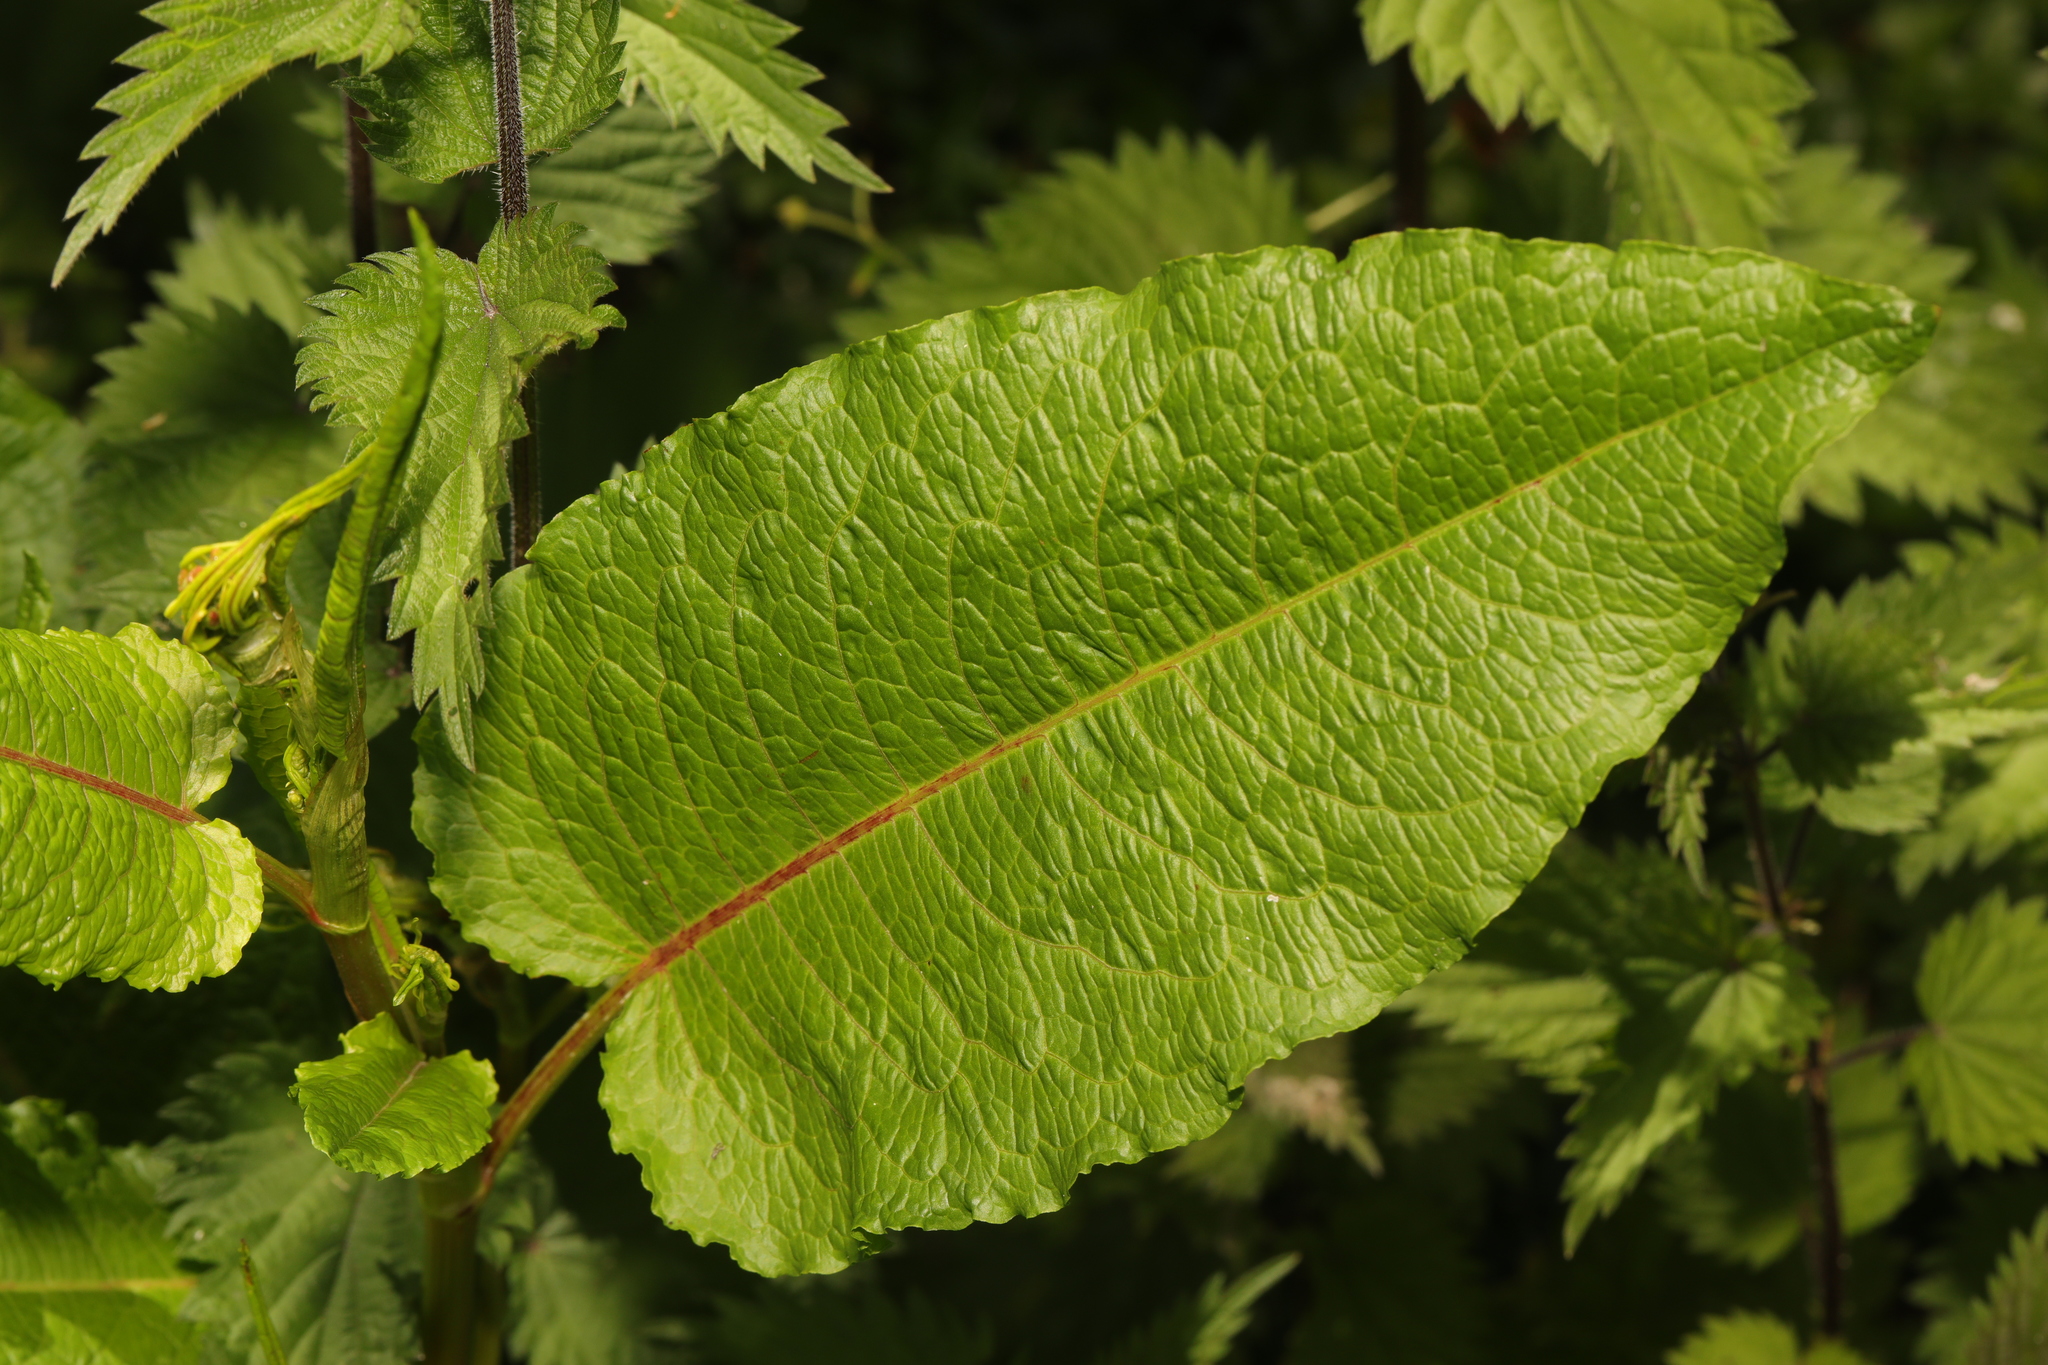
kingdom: Plantae
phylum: Tracheophyta
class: Magnoliopsida
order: Caryophyllales
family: Polygonaceae
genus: Rumex
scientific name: Rumex obtusifolius
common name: Bitter dock
